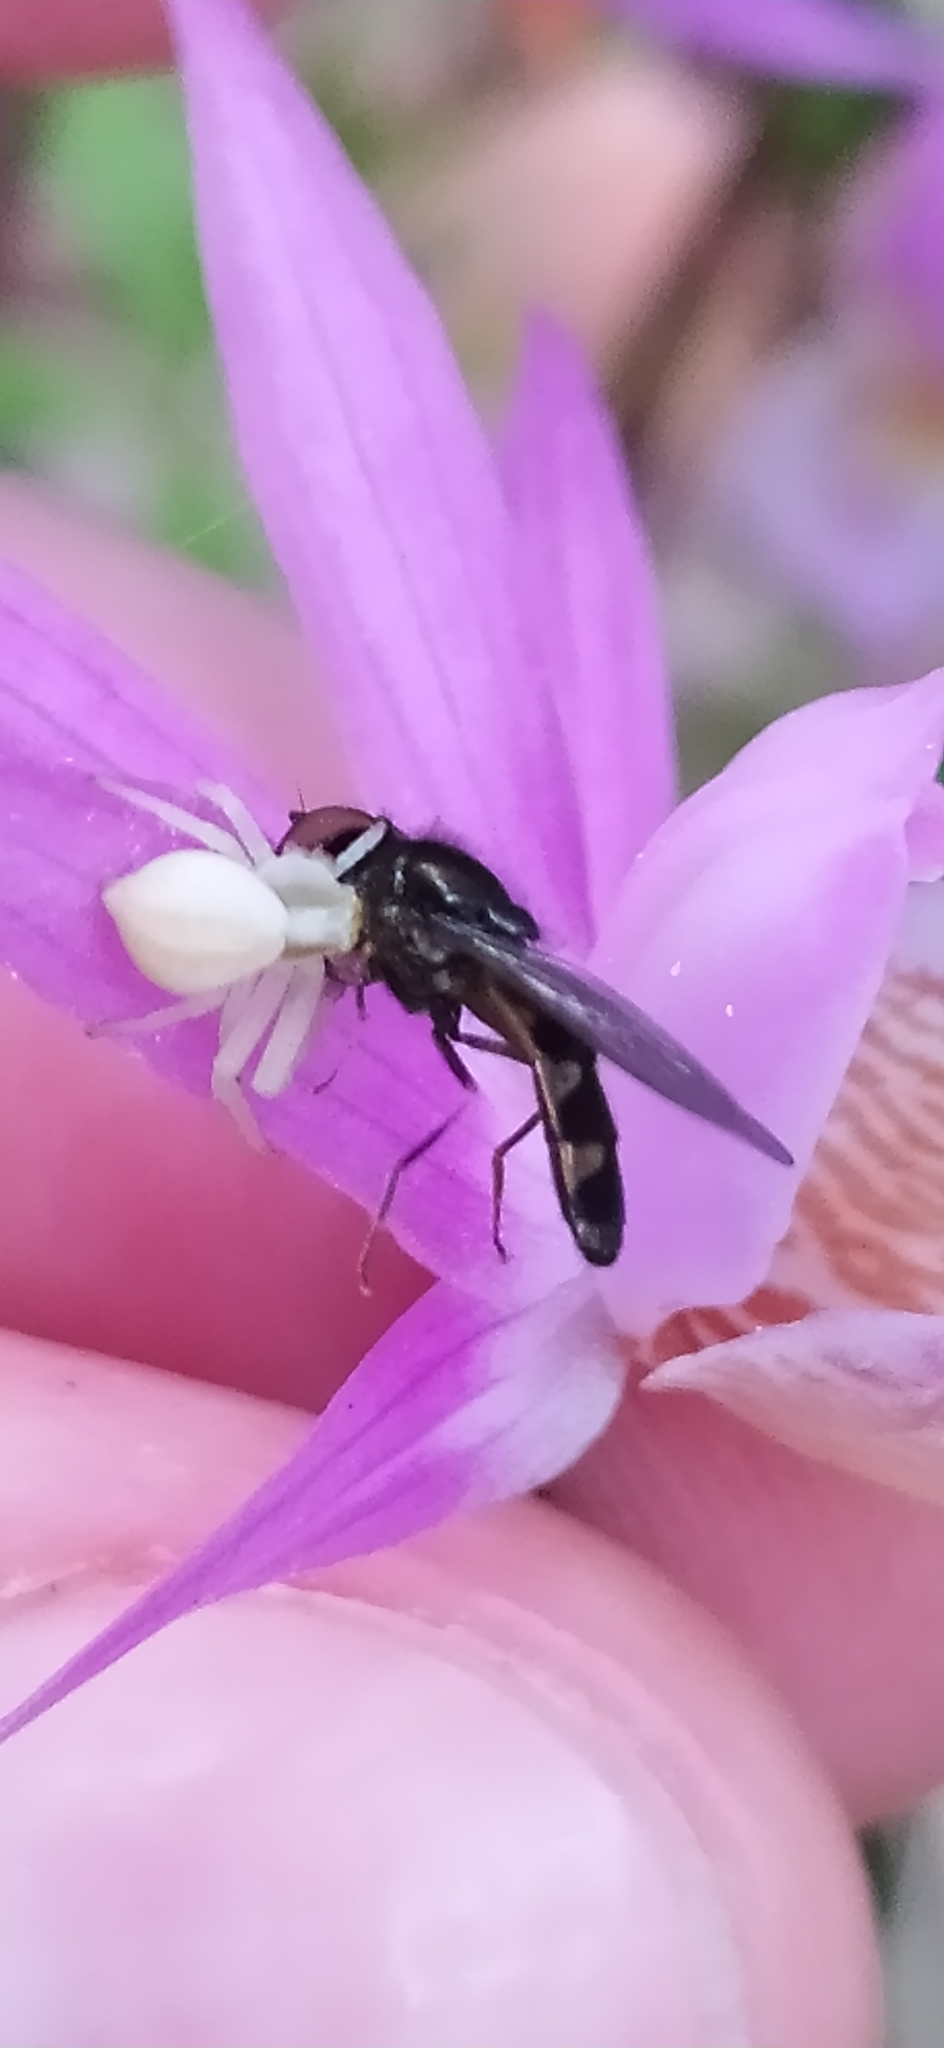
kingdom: Animalia
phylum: Arthropoda
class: Arachnida
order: Araneae
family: Thomisidae
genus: Misumena
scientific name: Misumena vatia
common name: Goldenrod crab spider
